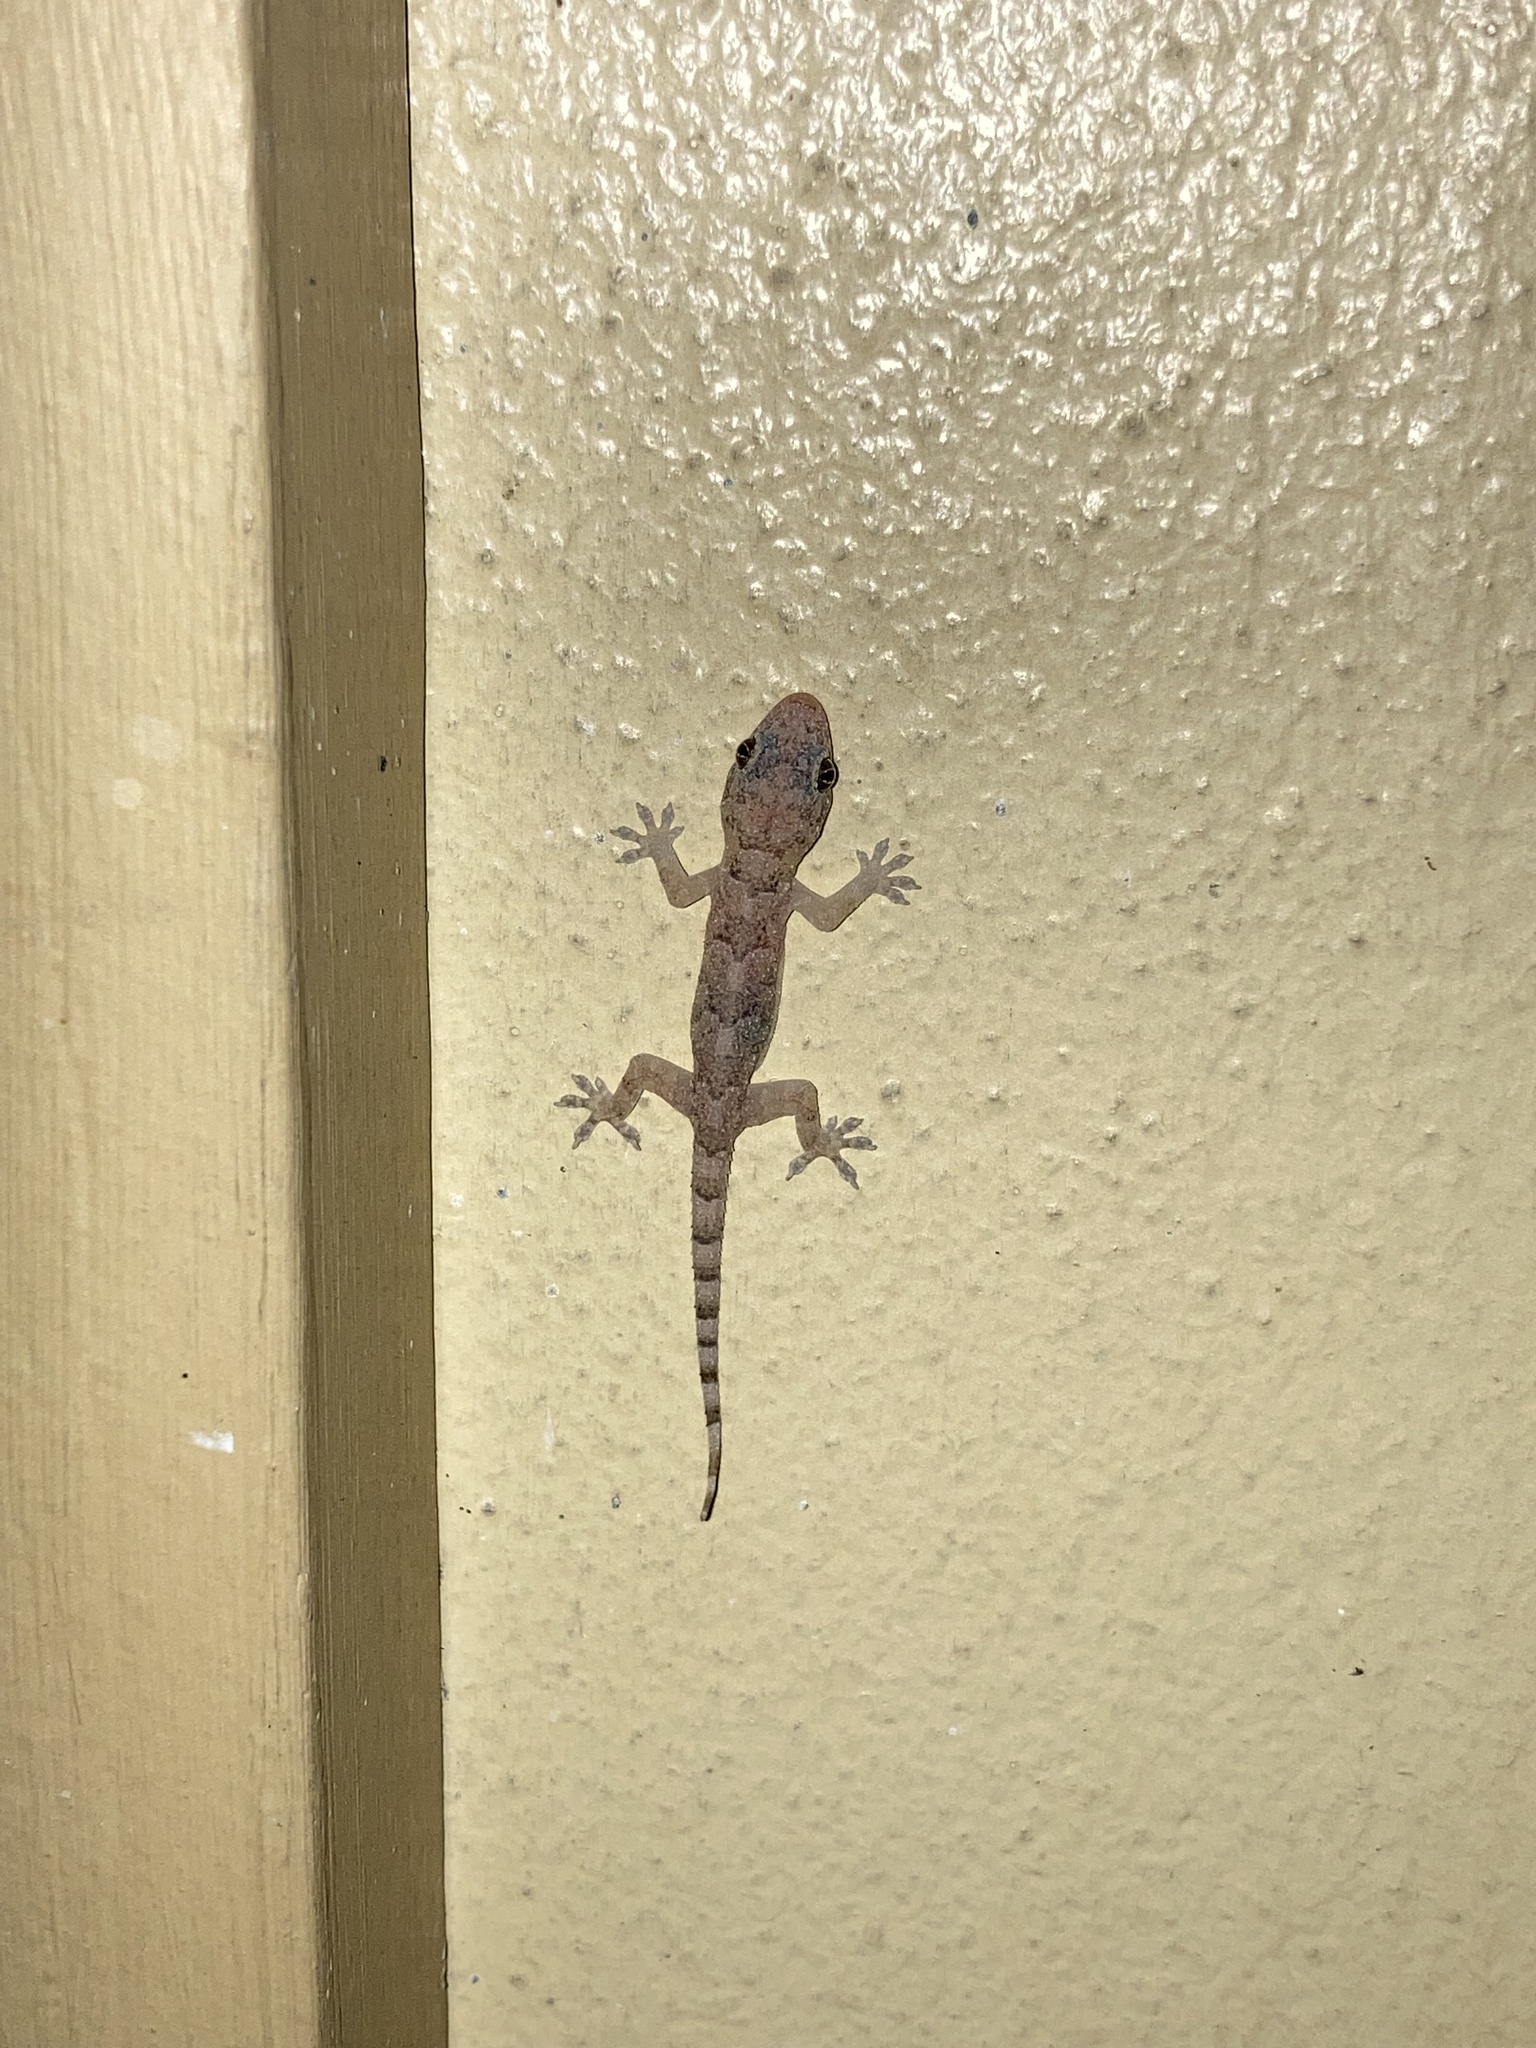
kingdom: Animalia
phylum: Chordata
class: Squamata
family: Gekkonidae
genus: Hemidactylus
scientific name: Hemidactylus mabouia
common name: House gecko
